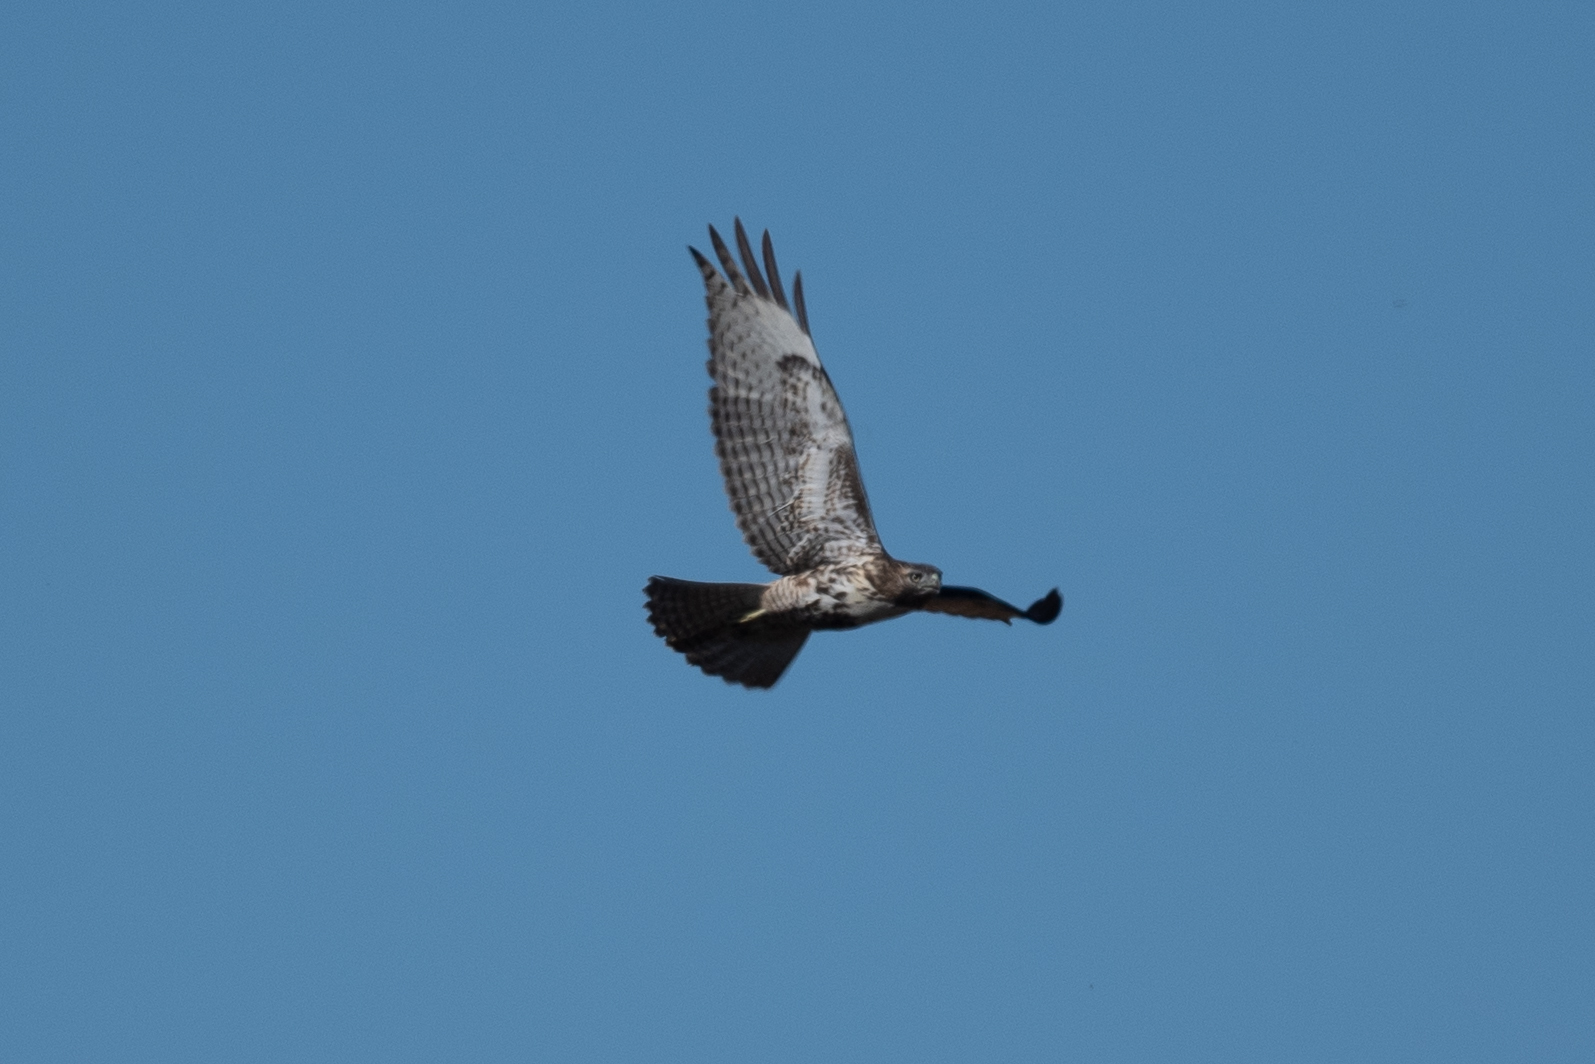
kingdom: Animalia
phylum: Chordata
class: Aves
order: Accipitriformes
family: Accipitridae
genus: Buteo
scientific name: Buteo jamaicensis
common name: Red-tailed hawk
